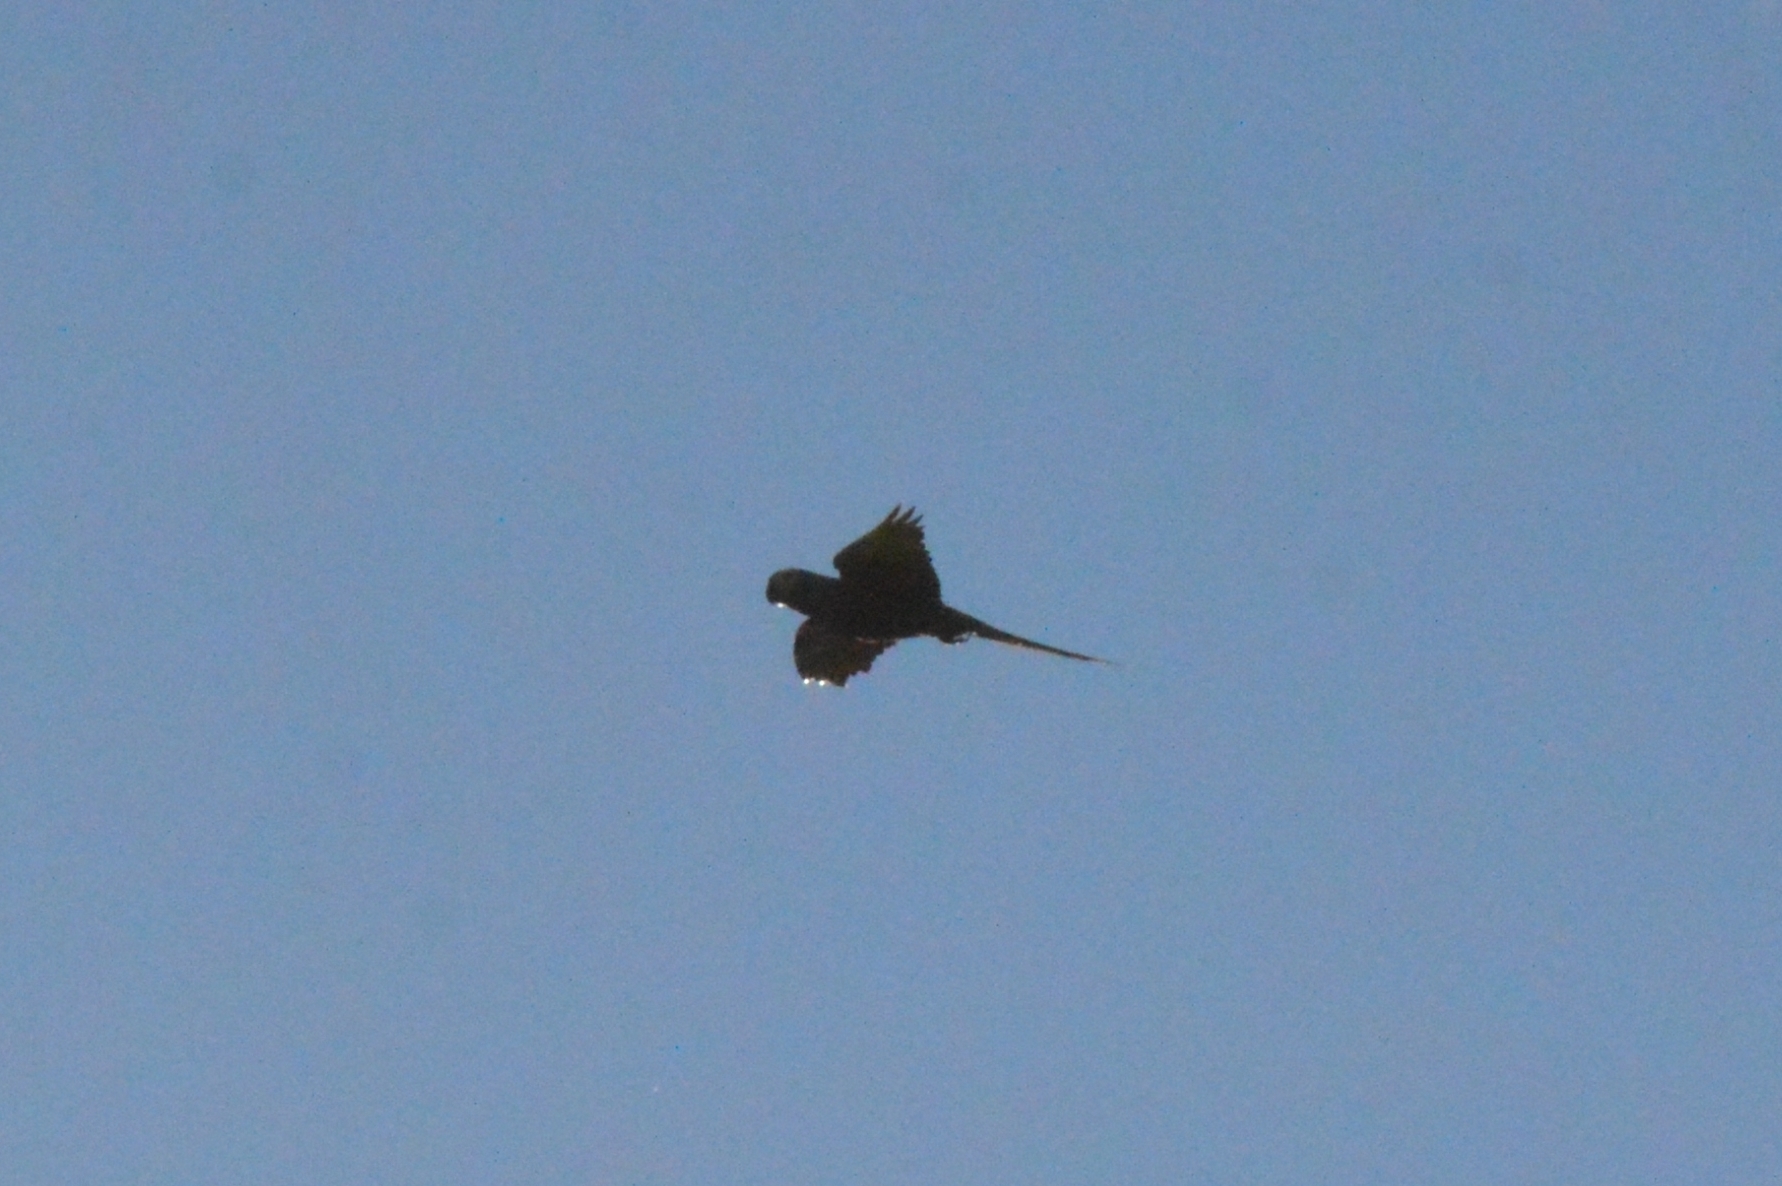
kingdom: Animalia
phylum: Chordata
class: Aves
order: Psittaciformes
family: Psittacidae
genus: Orthopsittaca
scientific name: Orthopsittaca manilata
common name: Red-bellied macaw
